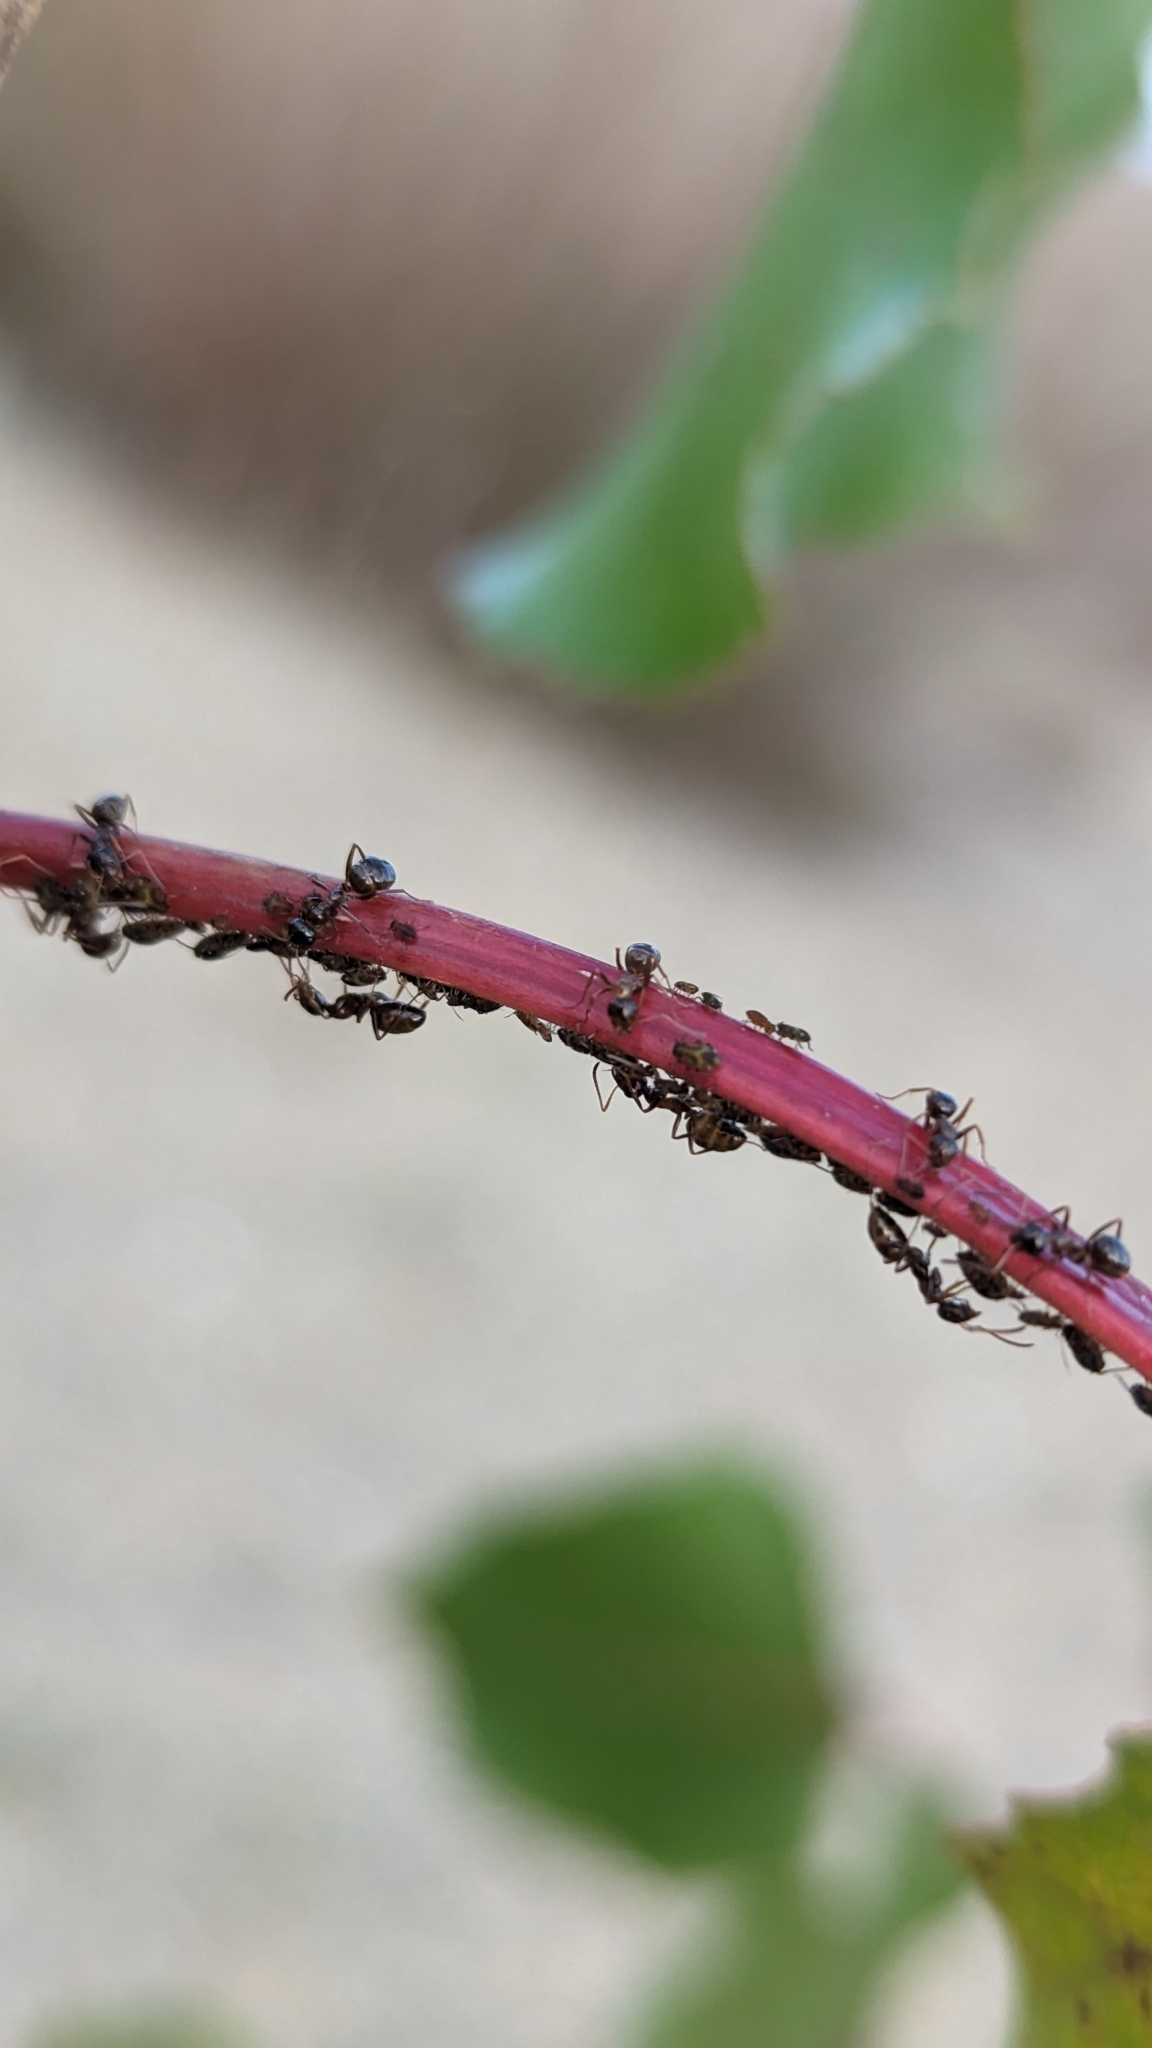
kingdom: Animalia
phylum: Arthropoda
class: Insecta
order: Hymenoptera
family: Formicidae
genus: Formica
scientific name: Formica vinculans
